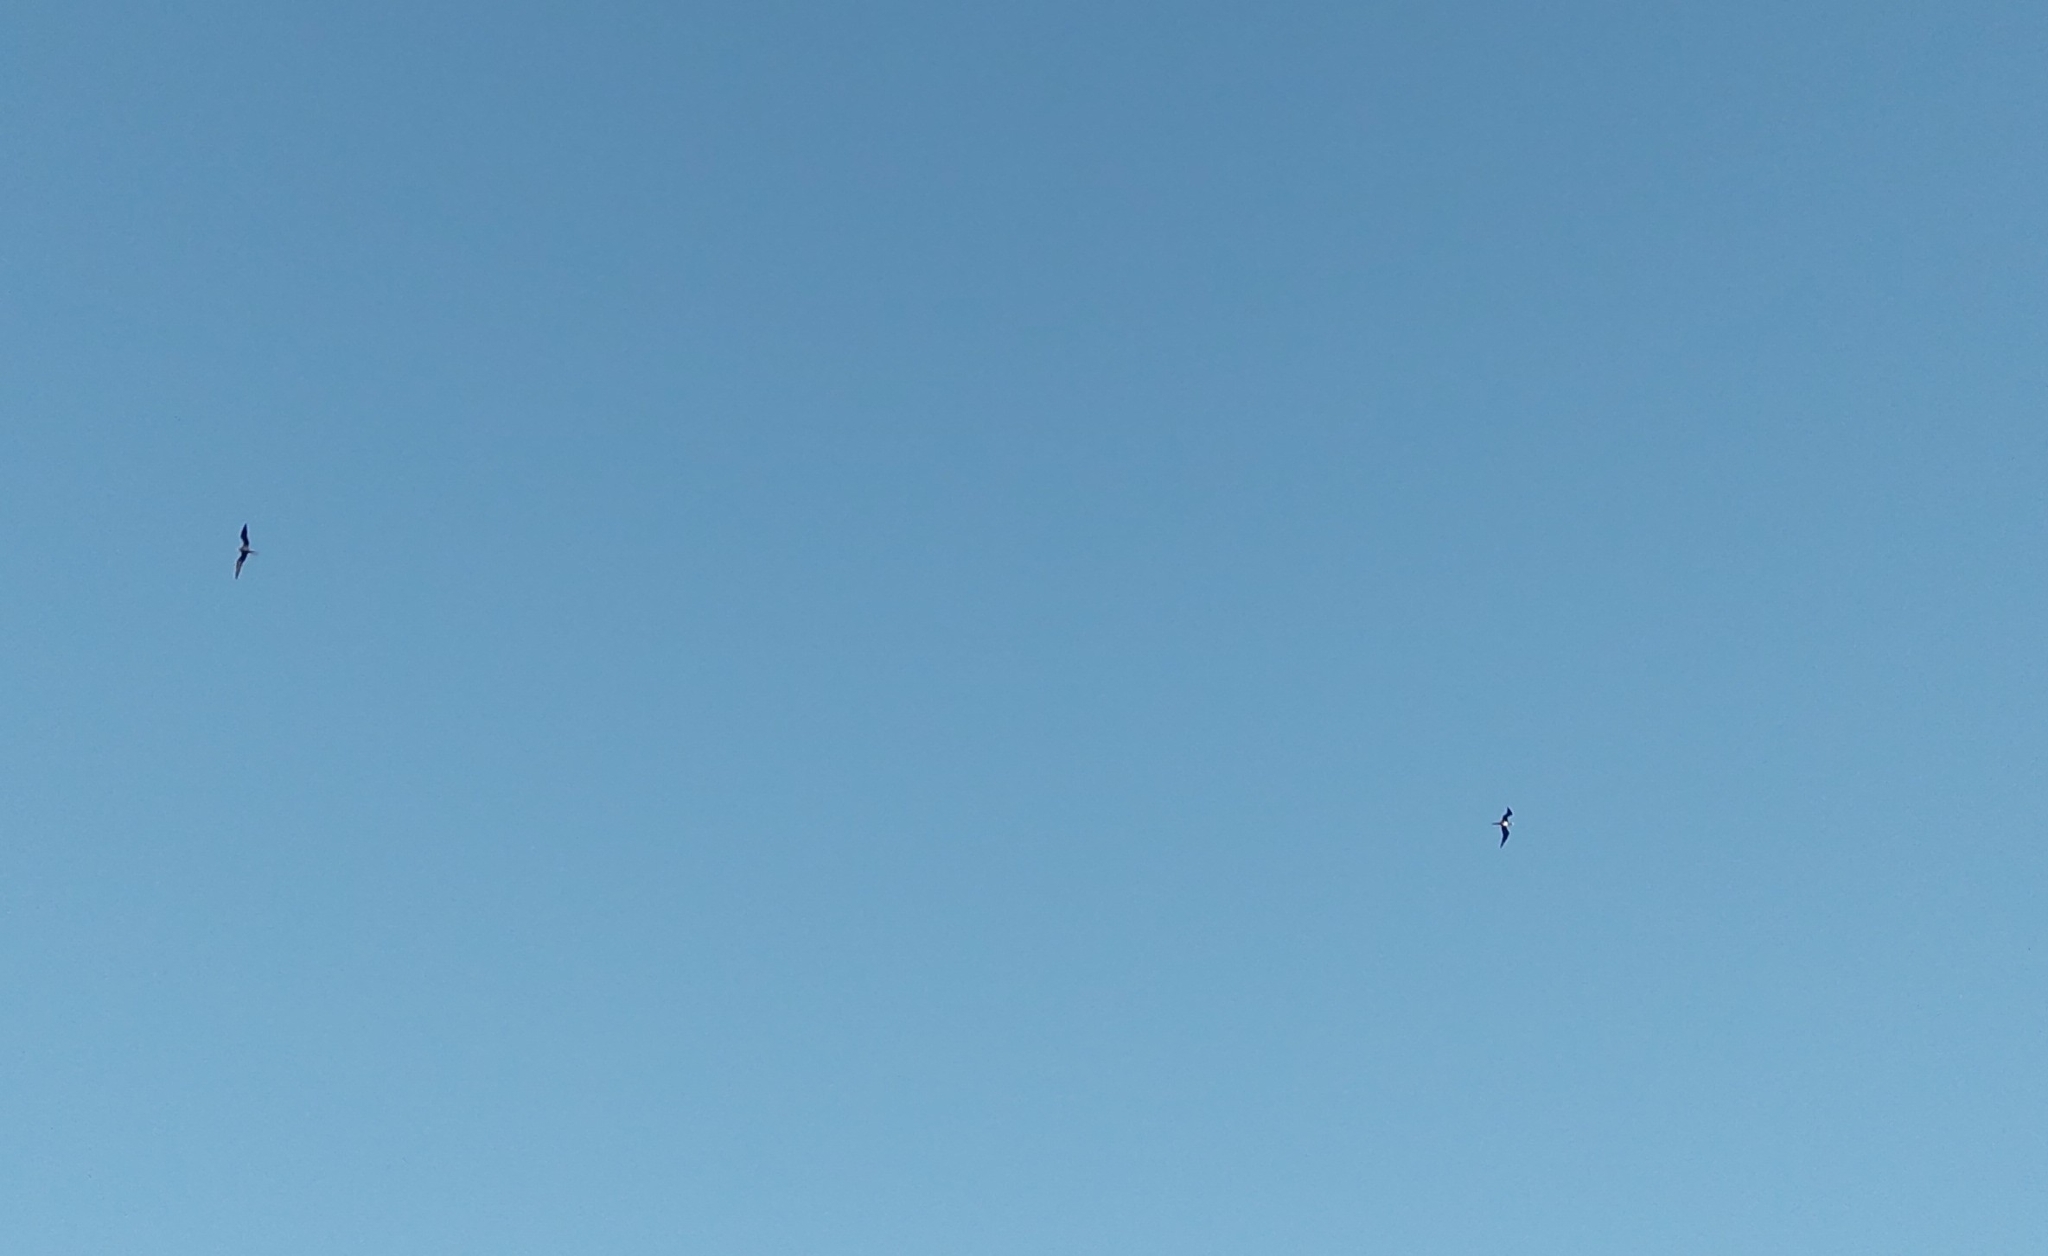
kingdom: Animalia
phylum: Chordata
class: Aves
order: Suliformes
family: Fregatidae
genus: Fregata
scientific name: Fregata magnificens
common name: Magnificent frigatebird
